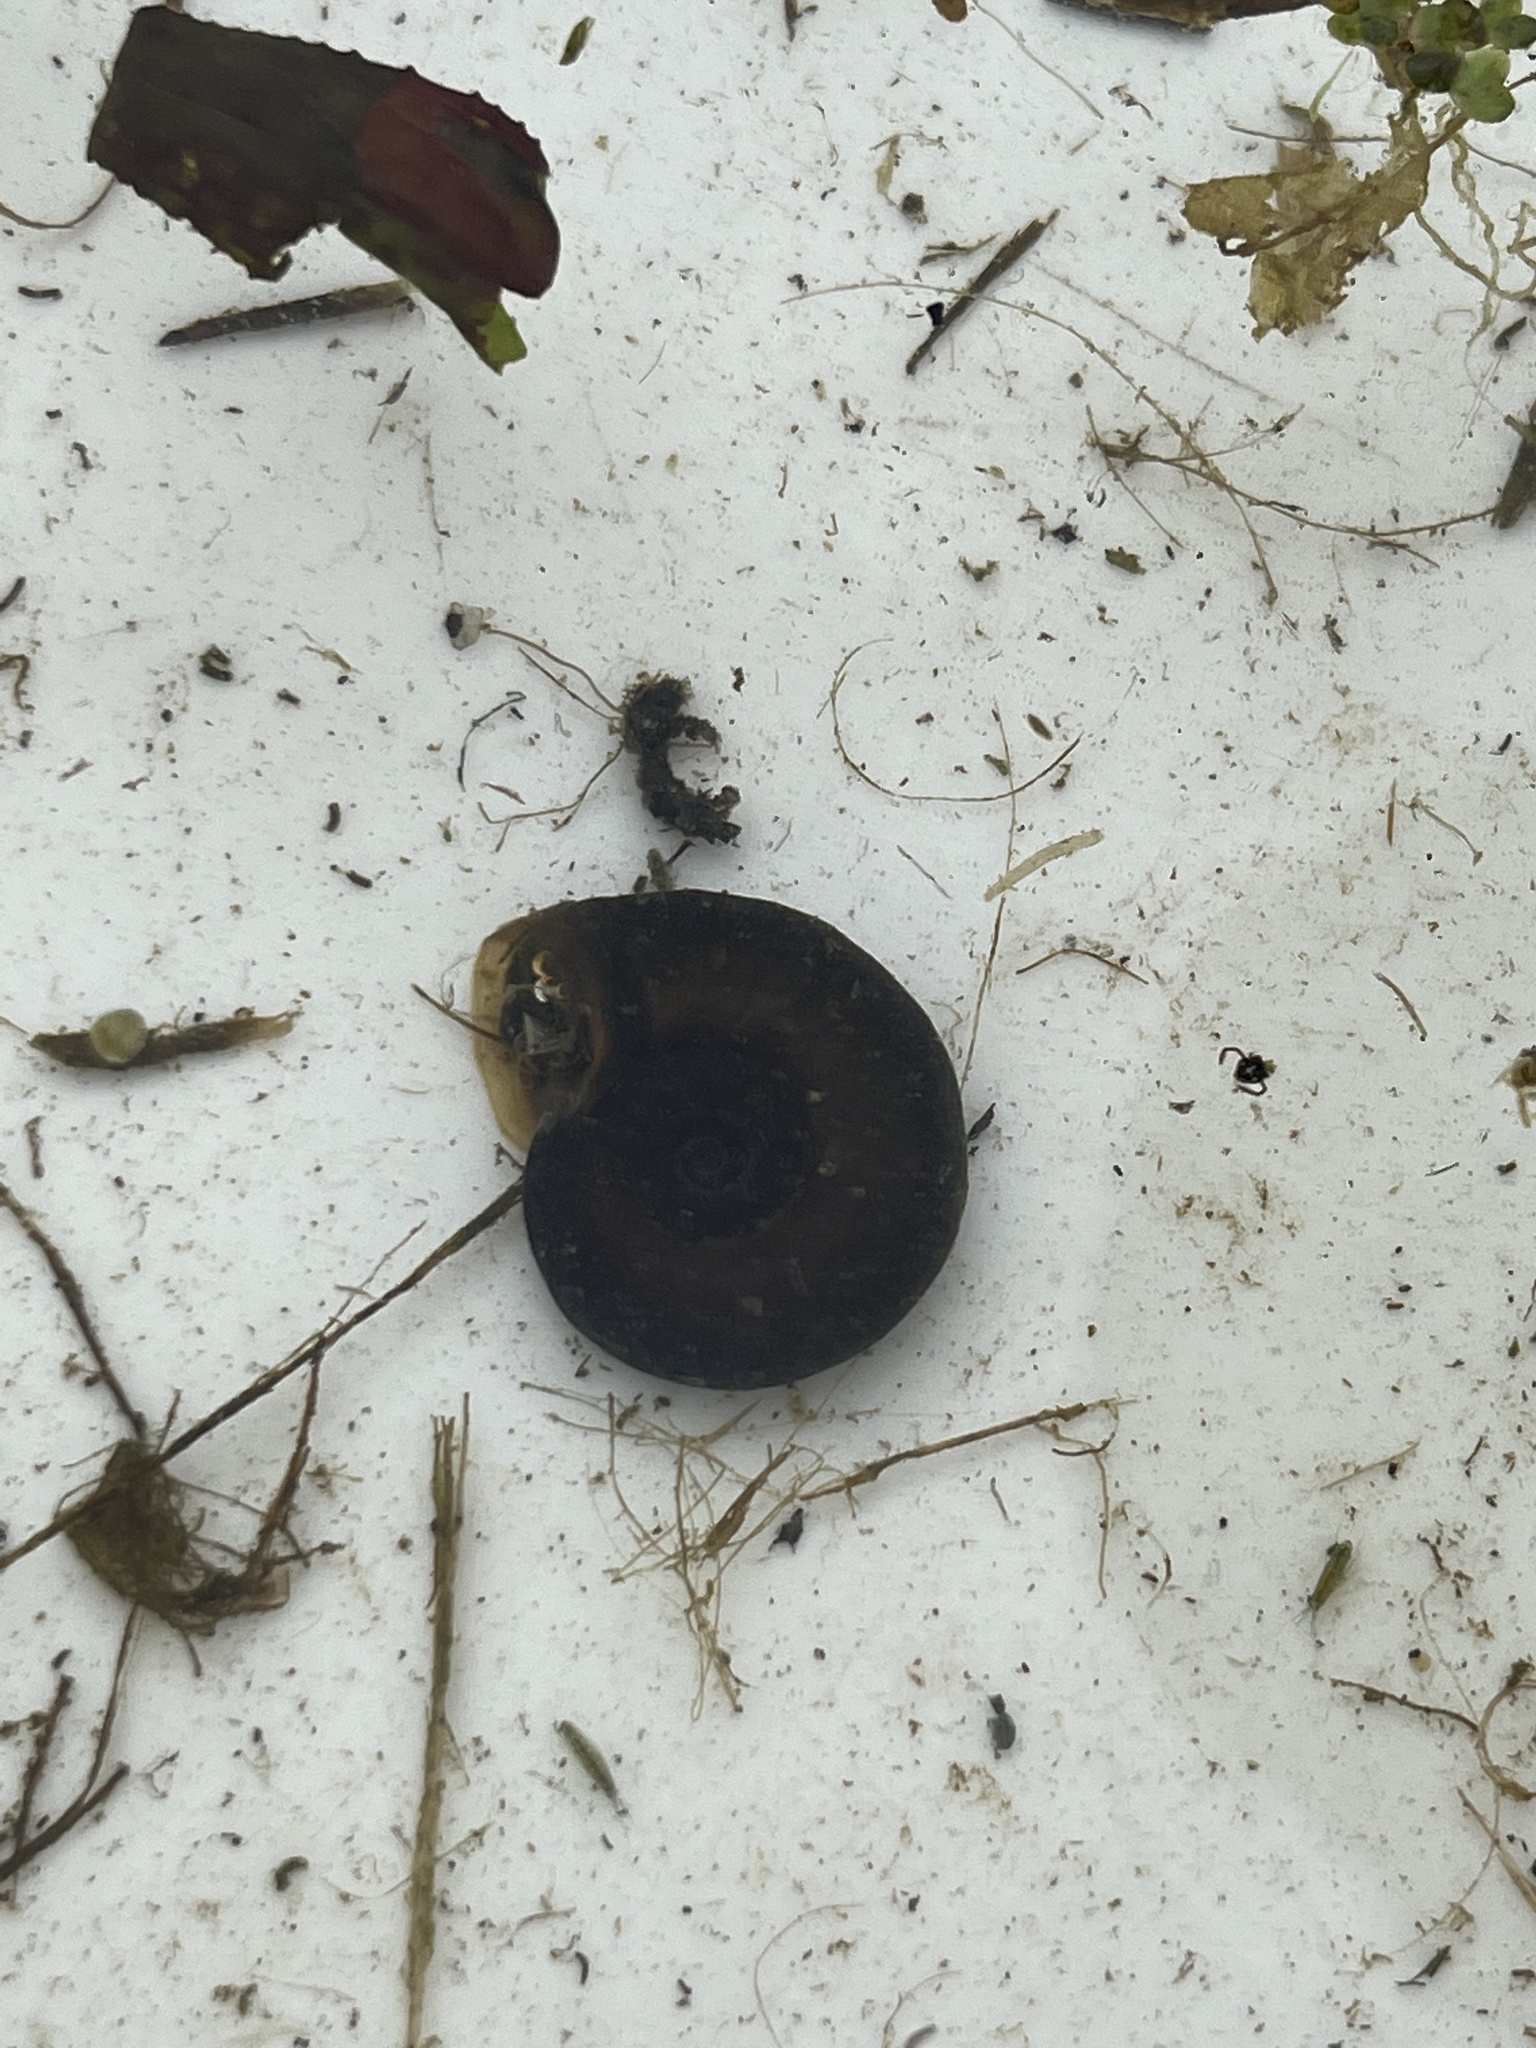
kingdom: Animalia
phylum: Mollusca
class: Gastropoda
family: Planorbidae
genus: Planorbarius
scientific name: Planorbarius corneus
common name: Great ramshorn
